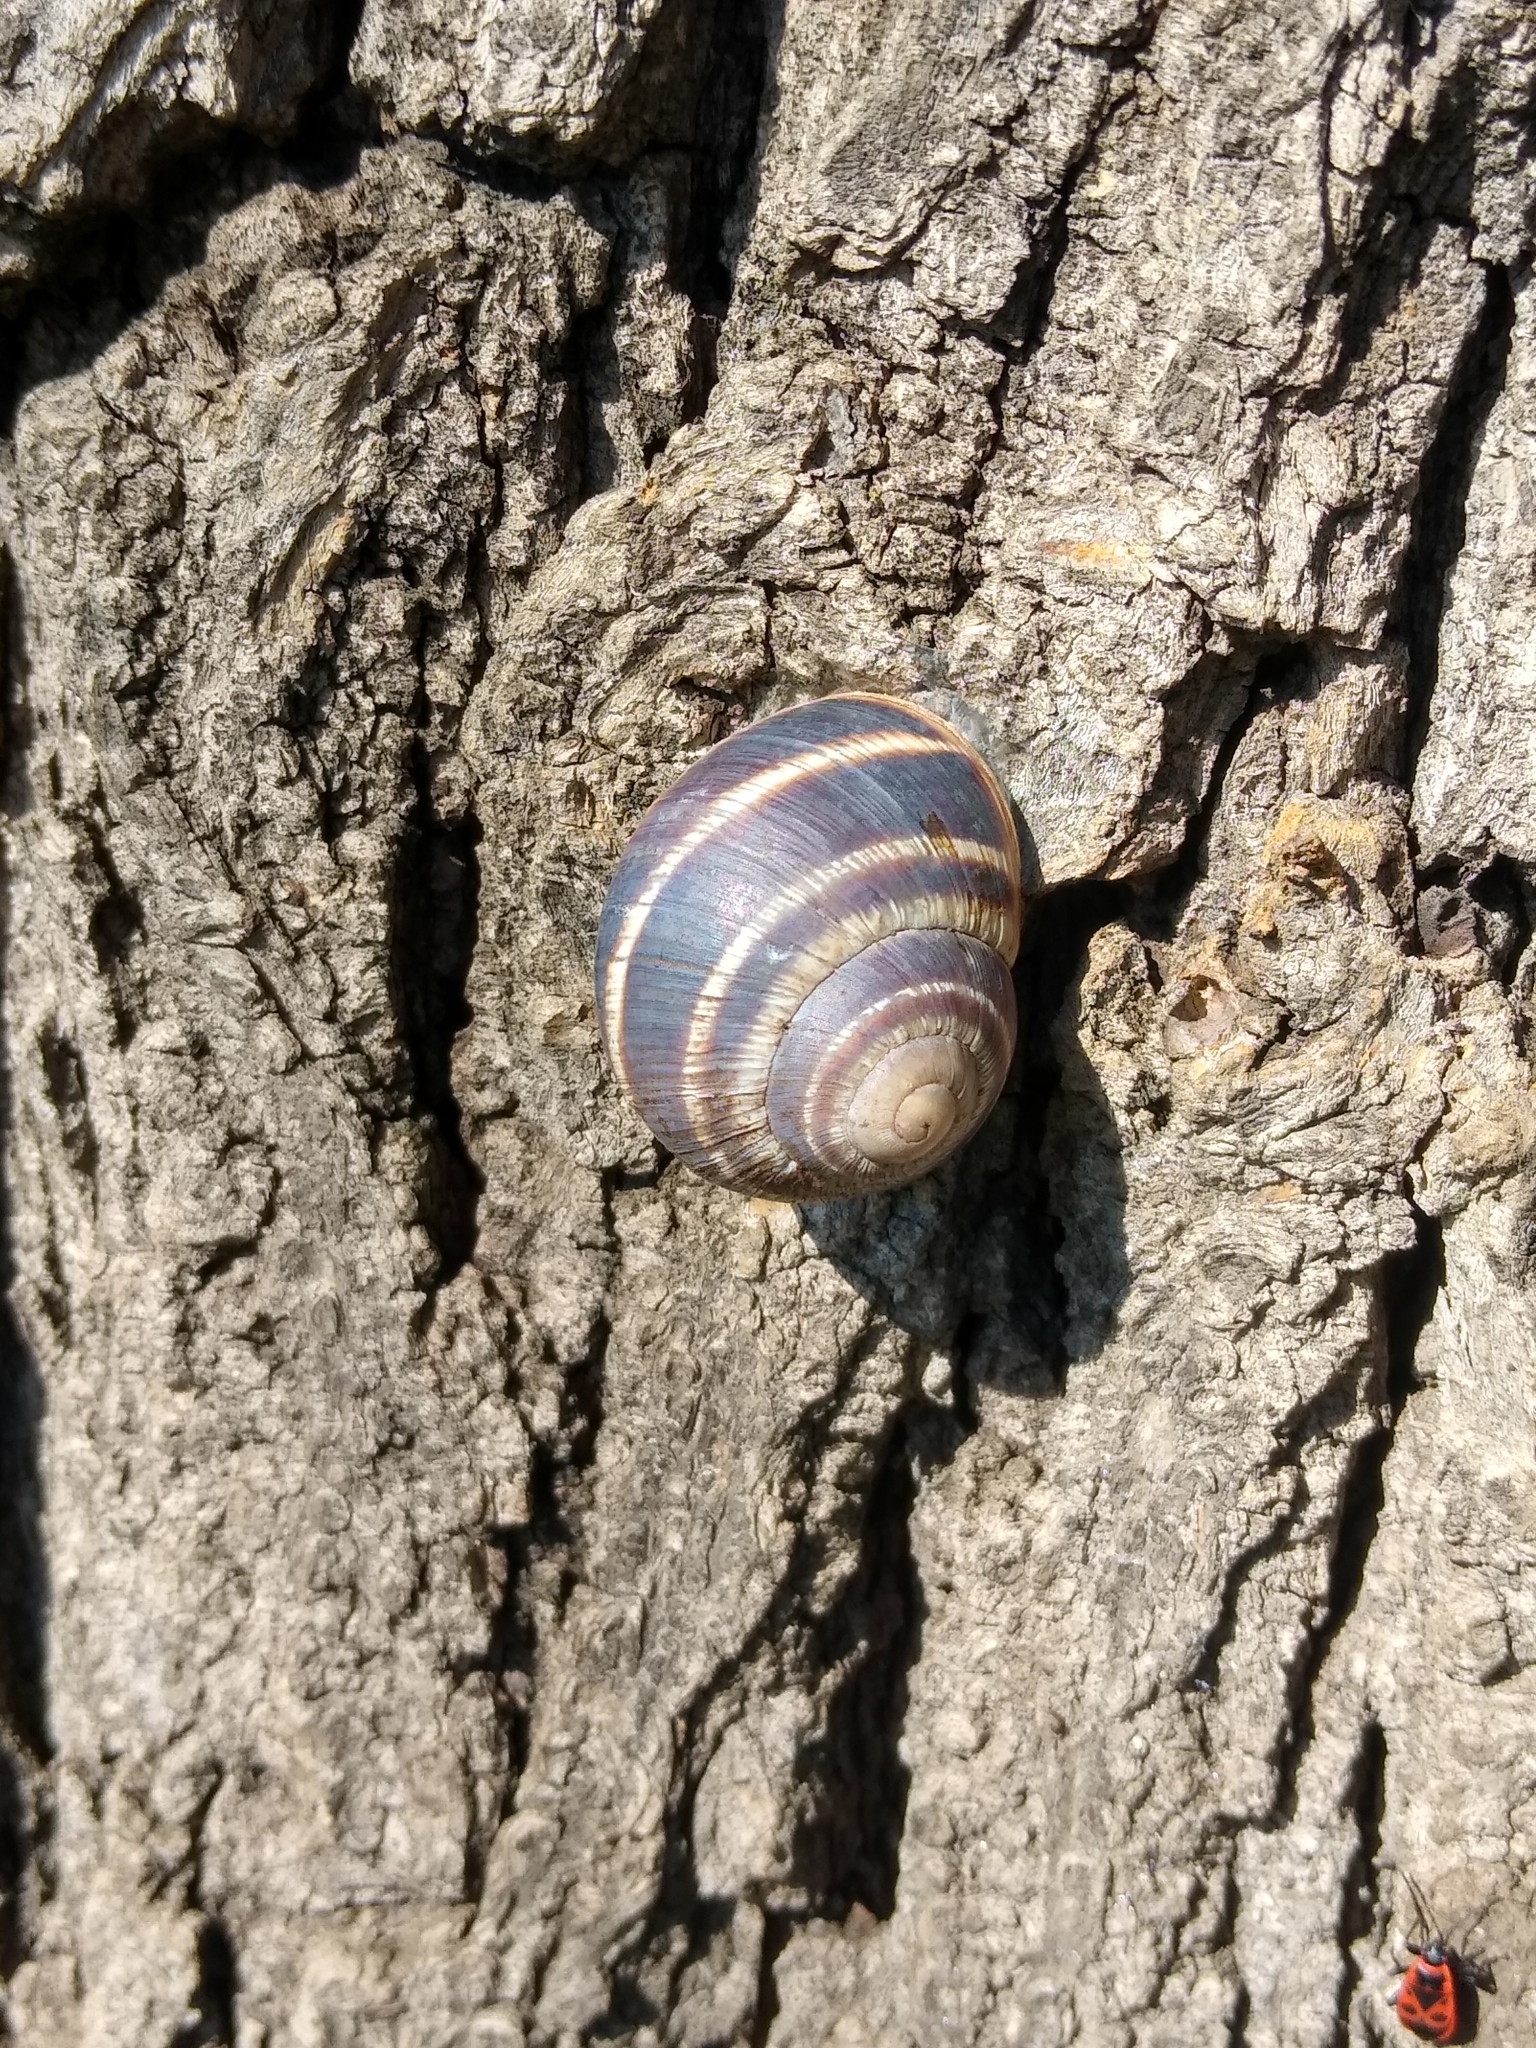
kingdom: Animalia
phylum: Mollusca
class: Gastropoda
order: Stylommatophora
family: Helicidae
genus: Helix
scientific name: Helix albescens
